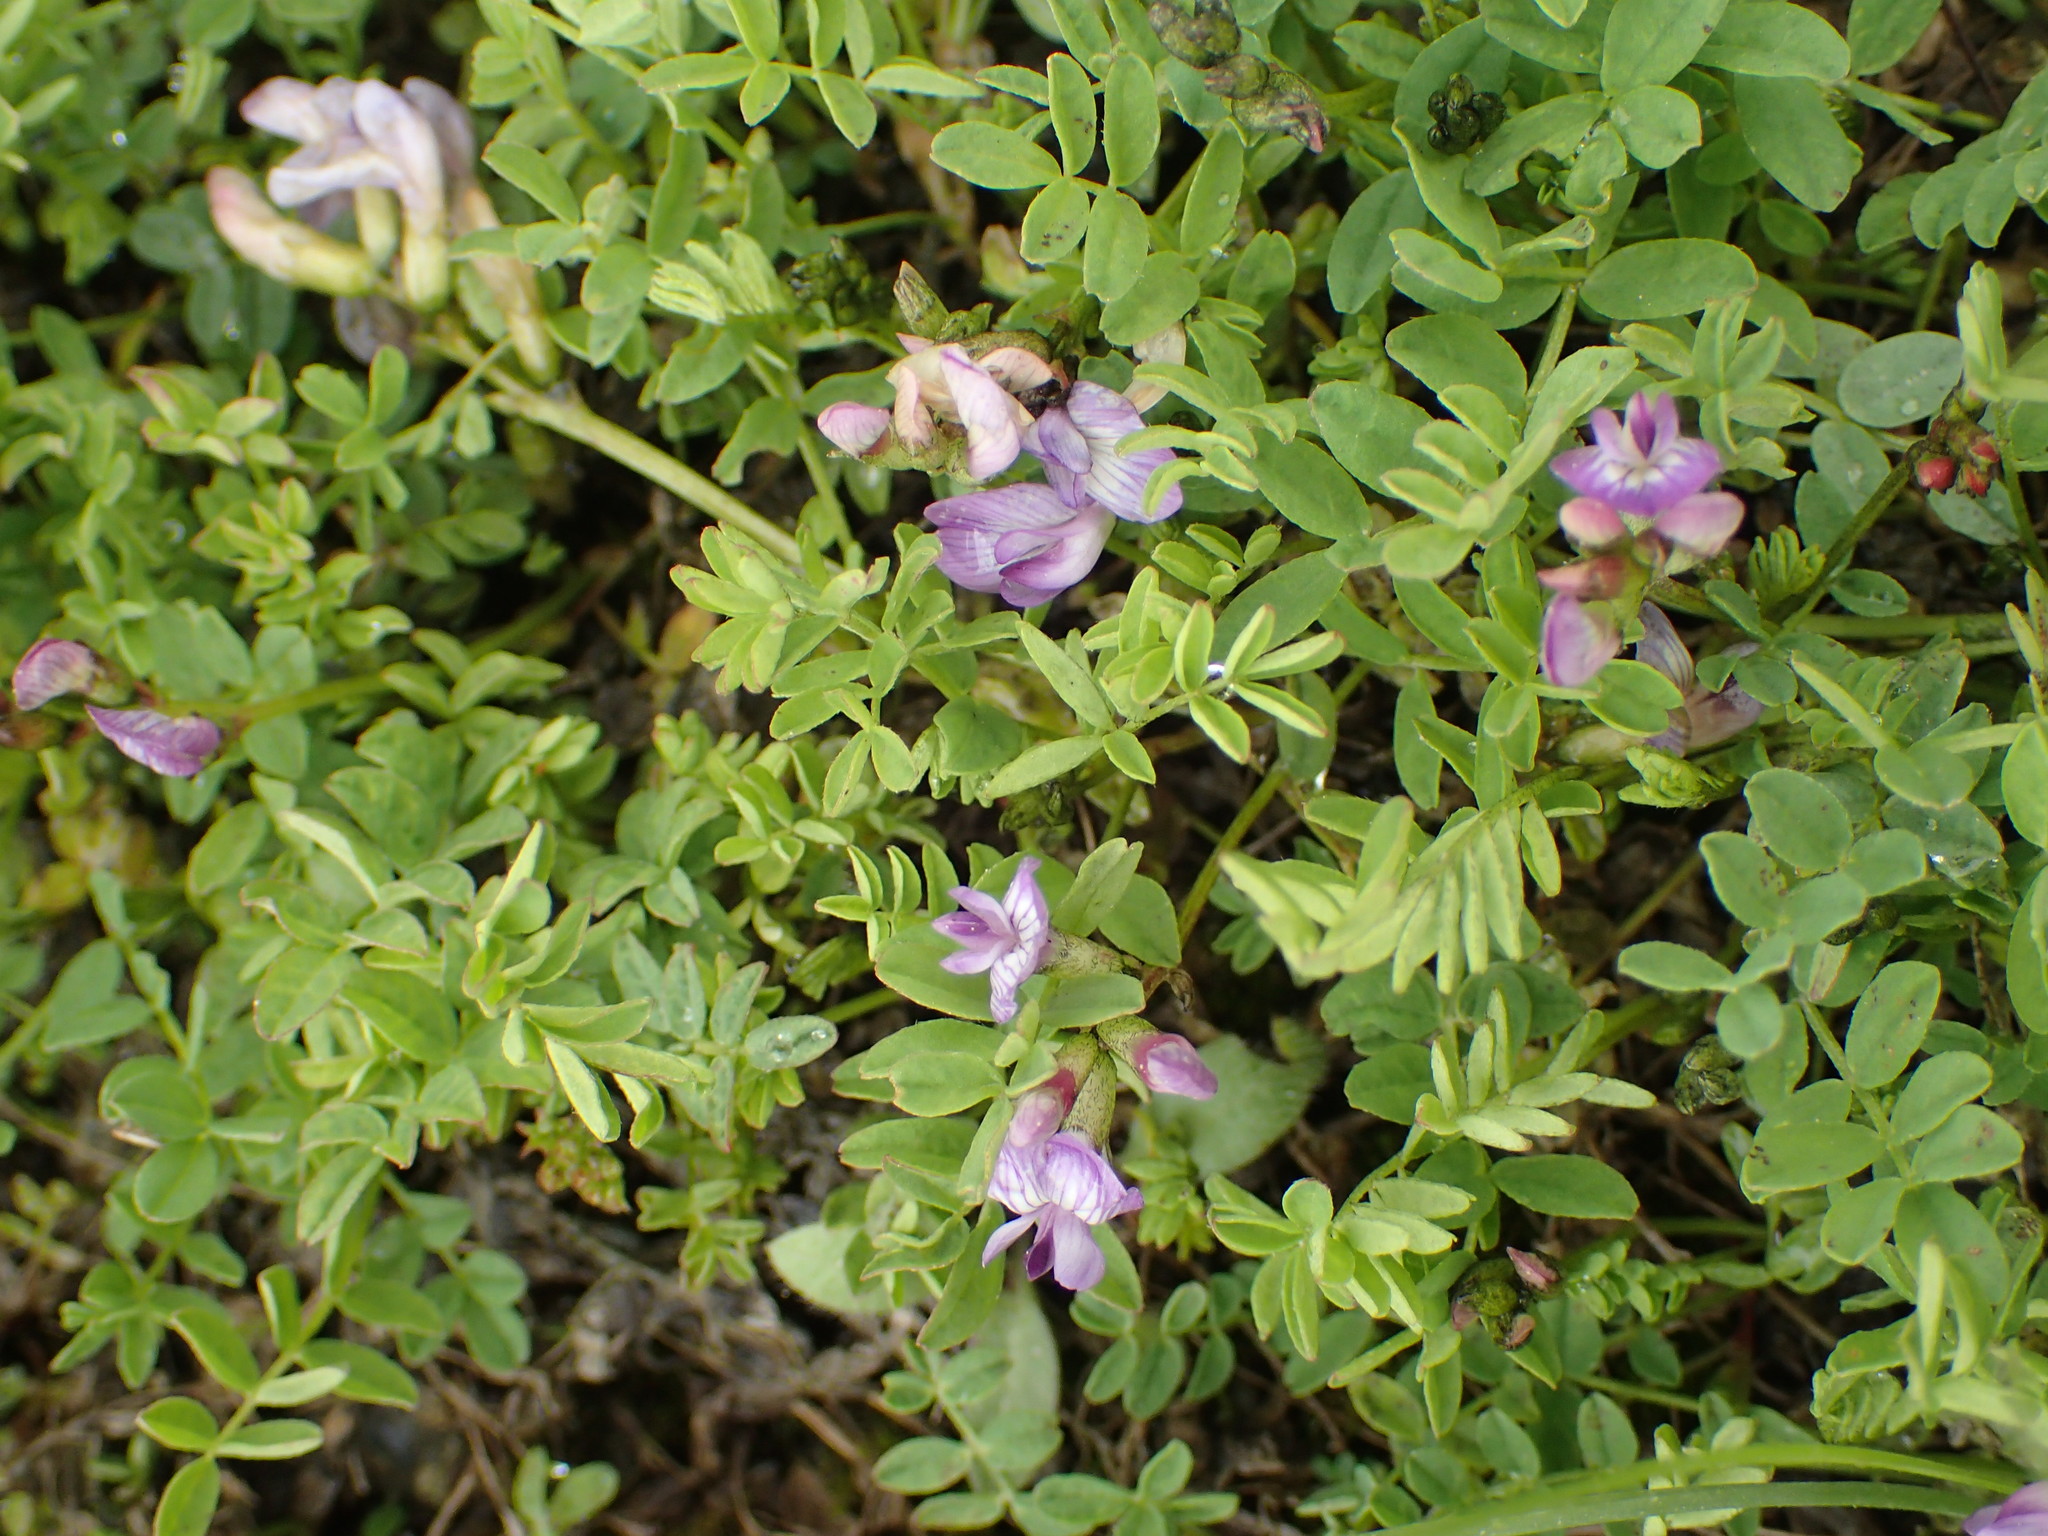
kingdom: Plantae
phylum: Tracheophyta
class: Magnoliopsida
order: Fabales
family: Fabaceae
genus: Astragalus
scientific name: Astragalus bodinii
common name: Bodin's milk-vetch
